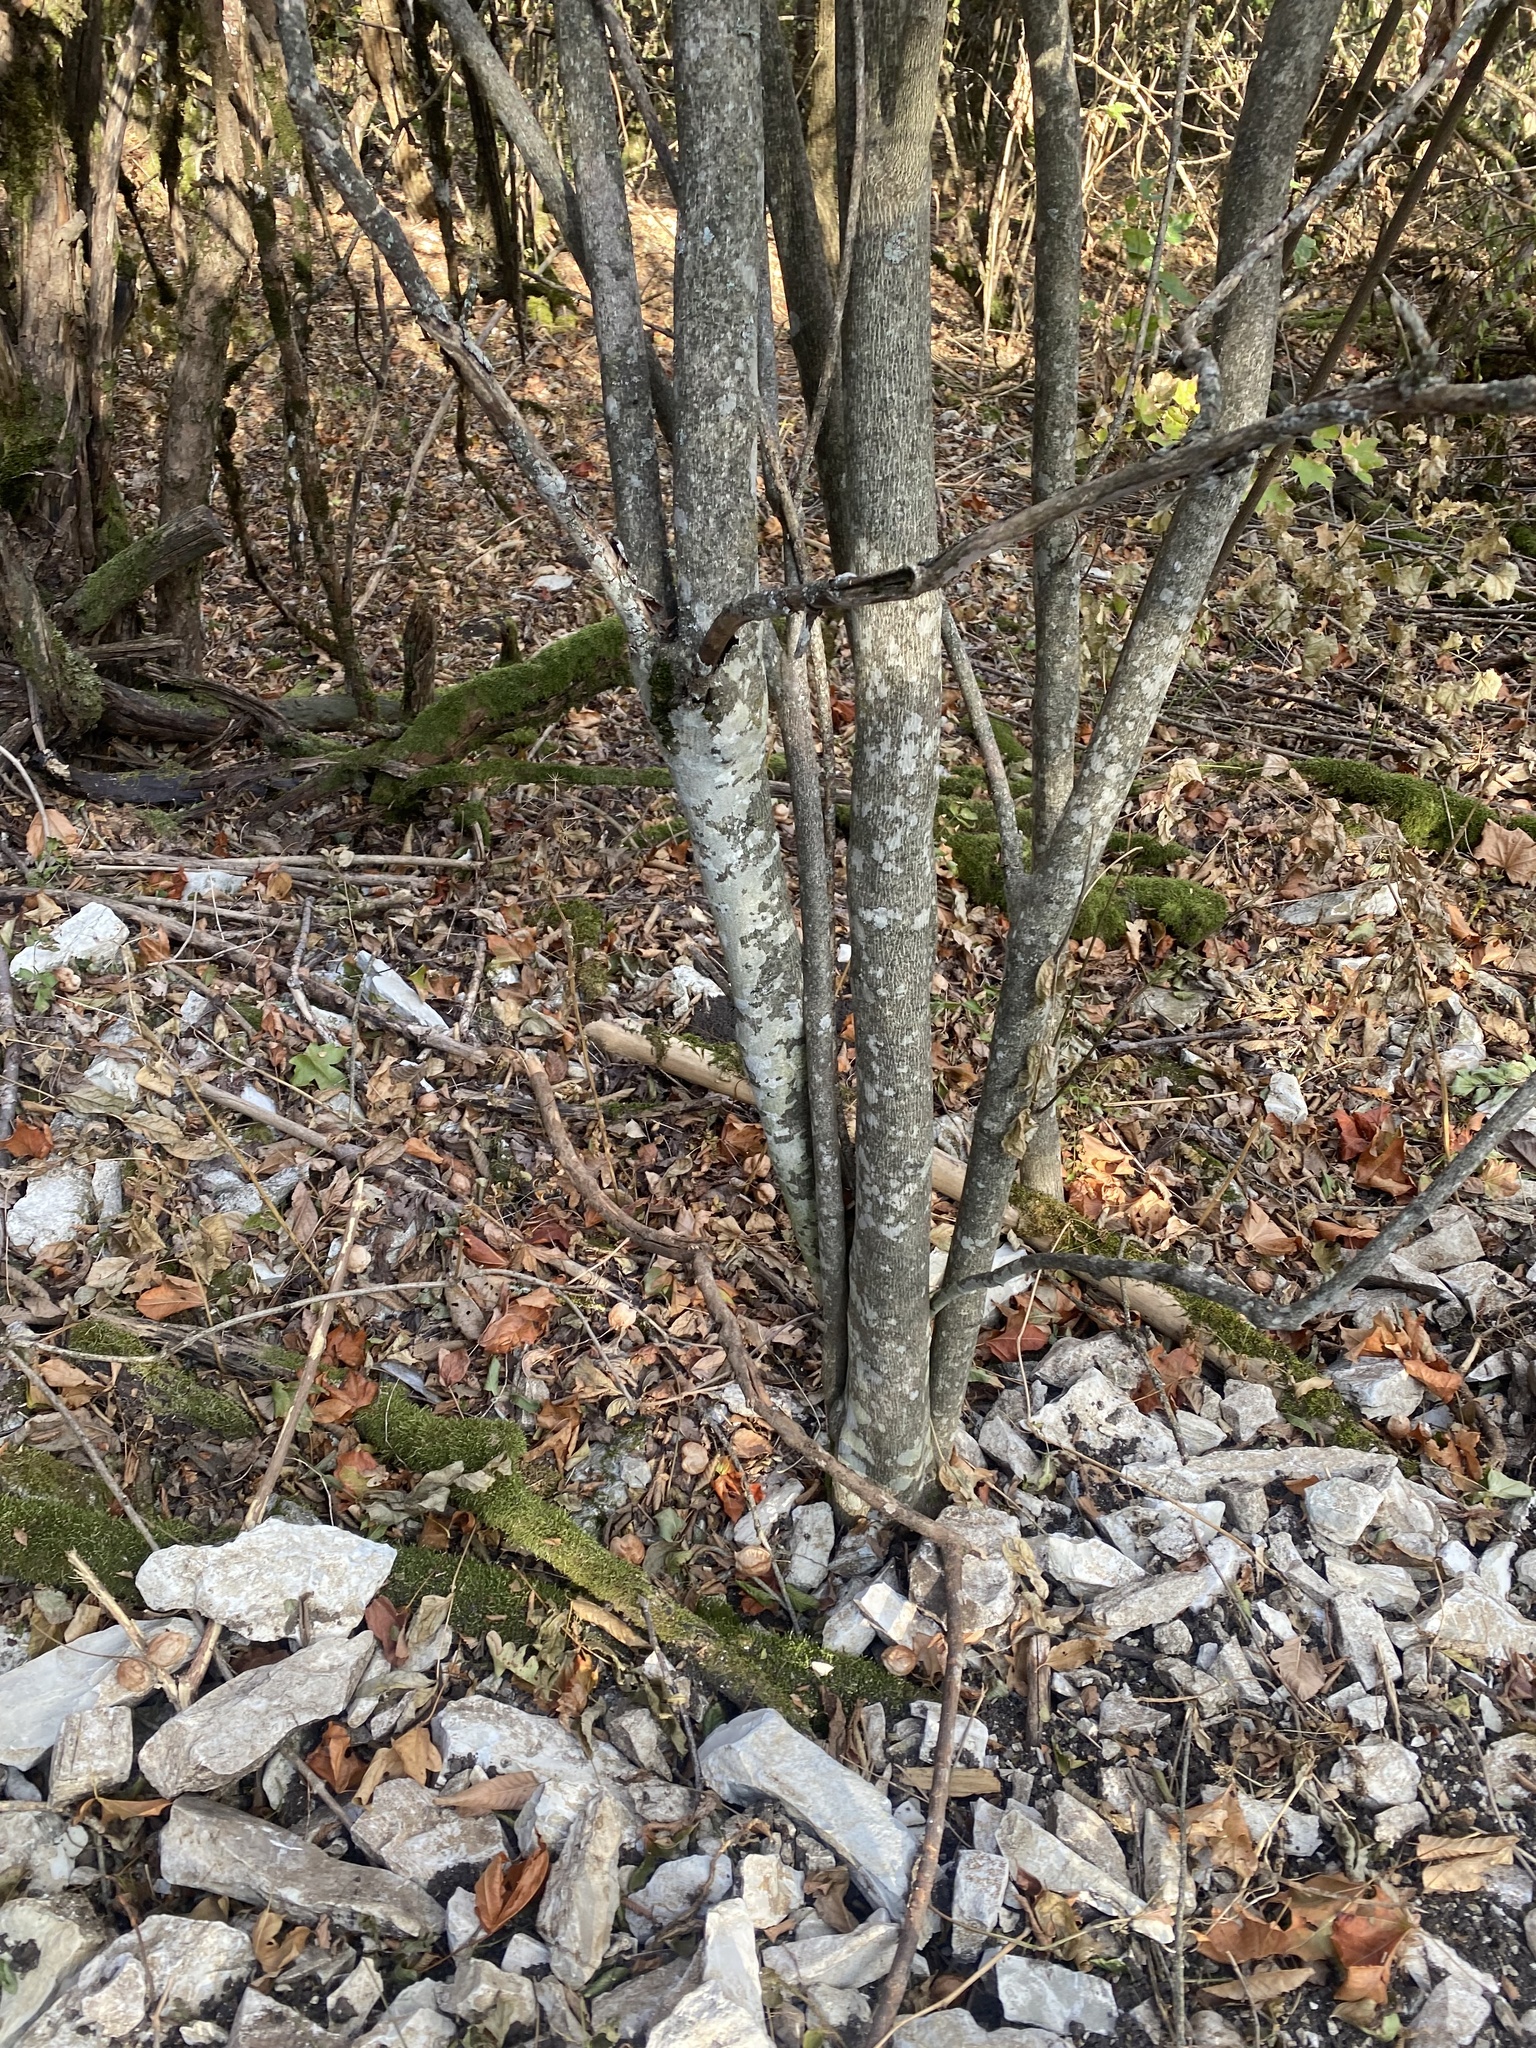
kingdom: Plantae
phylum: Tracheophyta
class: Magnoliopsida
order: Crossosomatales
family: Staphyleaceae
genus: Staphylea
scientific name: Staphylea pinnata
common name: Bladdernut
